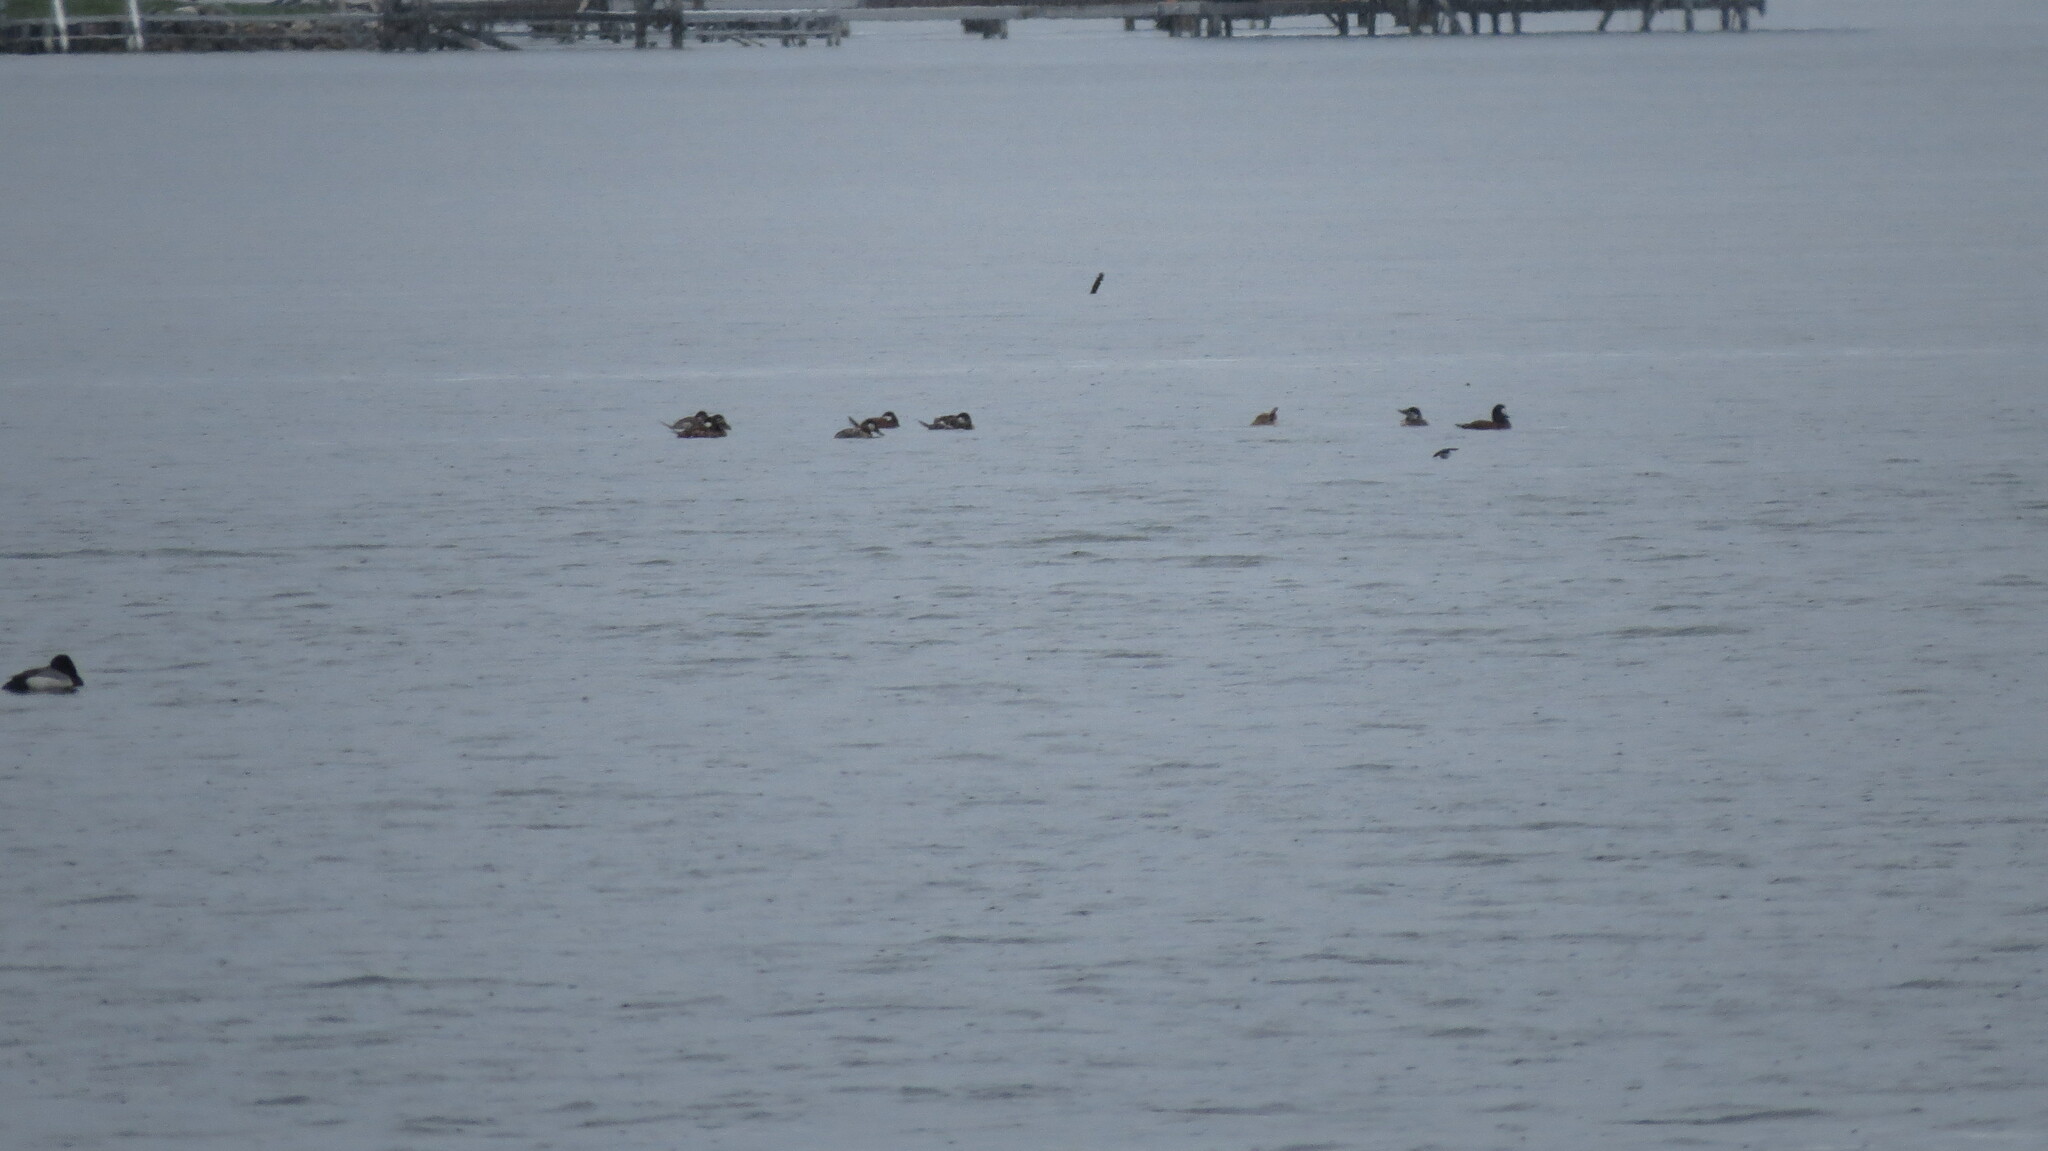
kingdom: Animalia
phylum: Chordata
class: Aves
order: Anseriformes
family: Anatidae
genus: Oxyura
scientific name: Oxyura jamaicensis
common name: Ruddy duck
